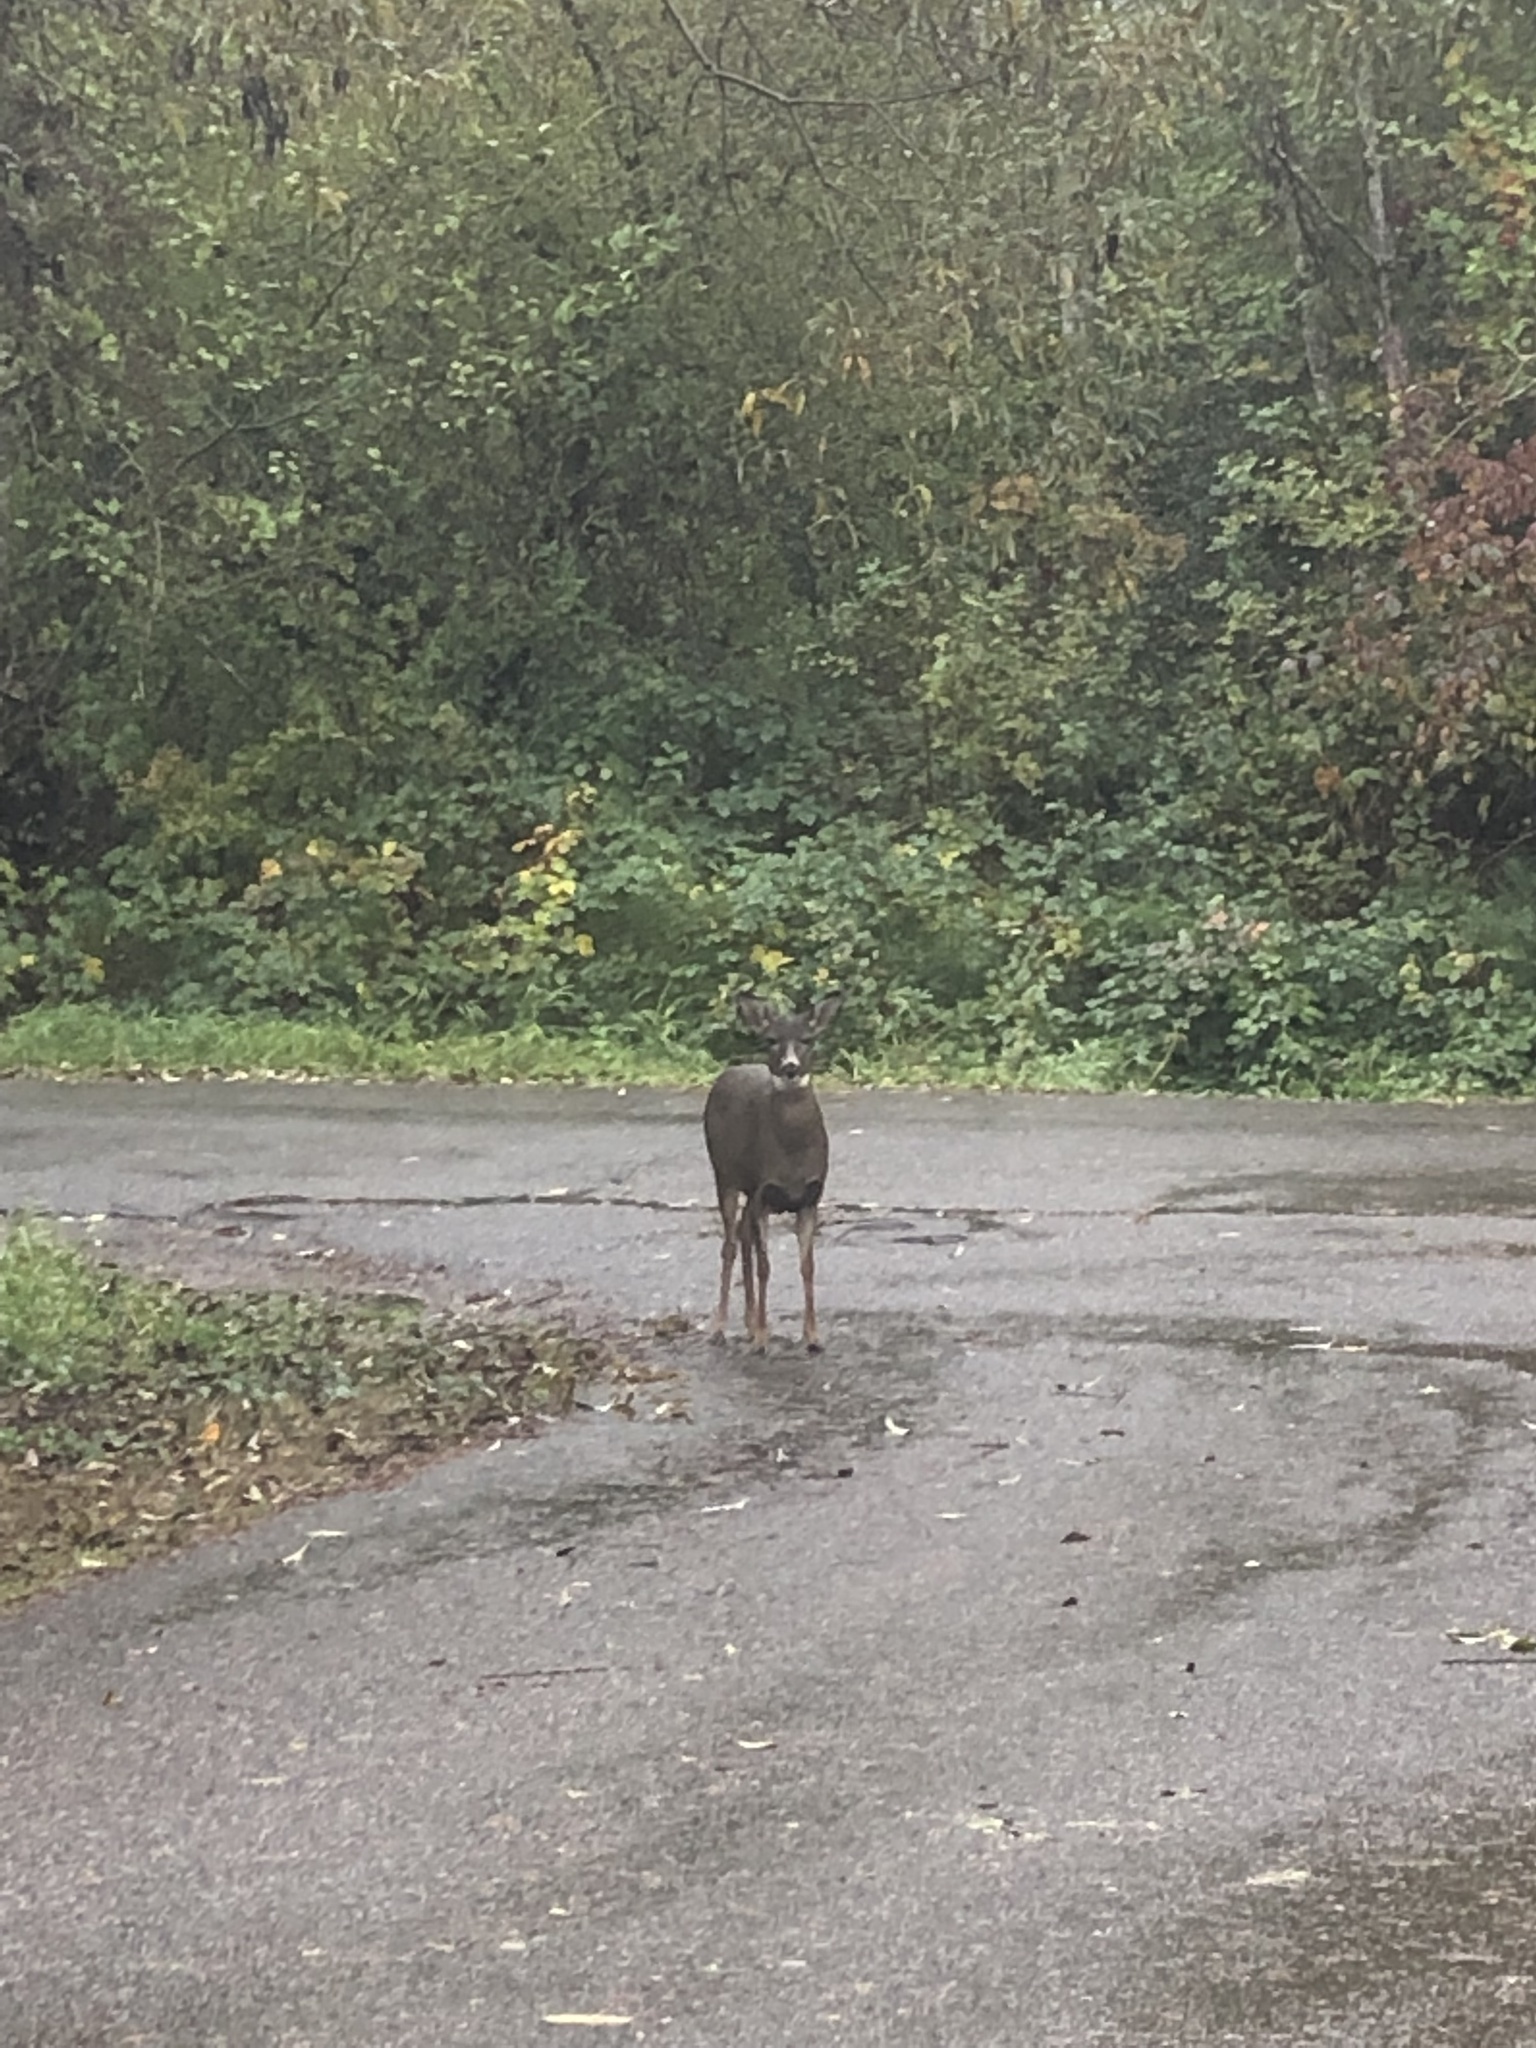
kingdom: Animalia
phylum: Chordata
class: Mammalia
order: Artiodactyla
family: Cervidae
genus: Odocoileus
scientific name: Odocoileus hemionus
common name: Mule deer
